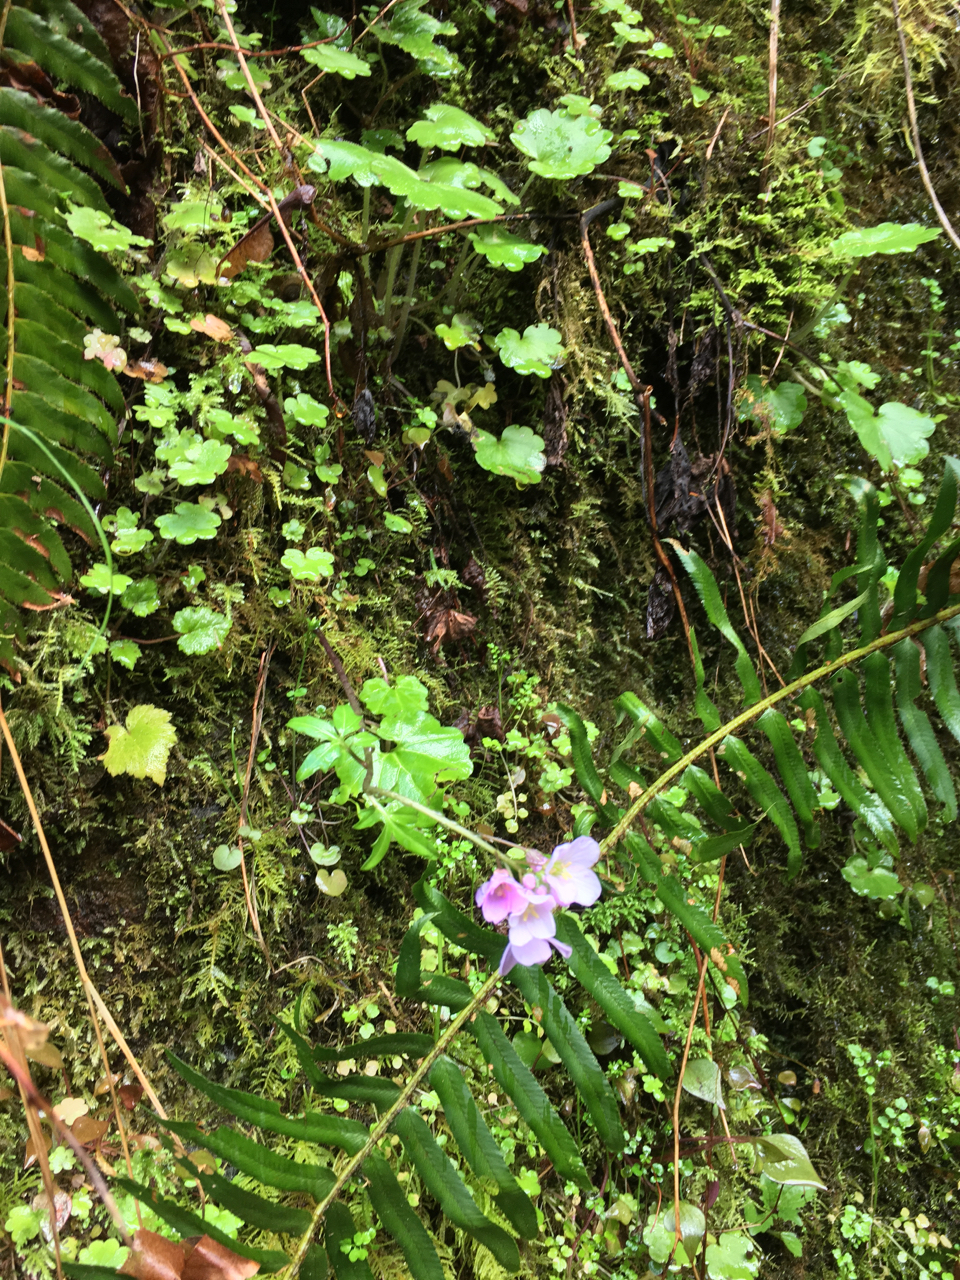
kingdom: Plantae
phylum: Tracheophyta
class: Magnoliopsida
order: Brassicales
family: Brassicaceae
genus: Cardamine
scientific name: Cardamine nuttallii
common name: Nuttall's toothwort
